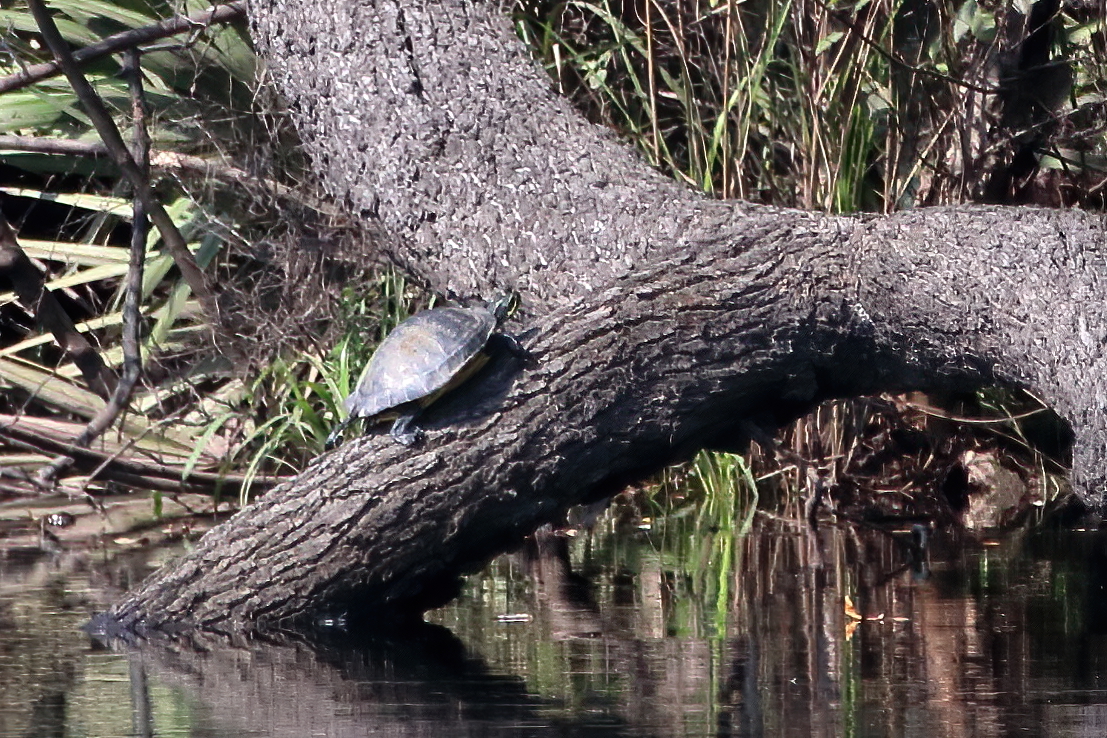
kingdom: Animalia
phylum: Chordata
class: Testudines
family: Emydidae
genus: Pseudemys
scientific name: Pseudemys concinna
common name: Eastern river cooter
